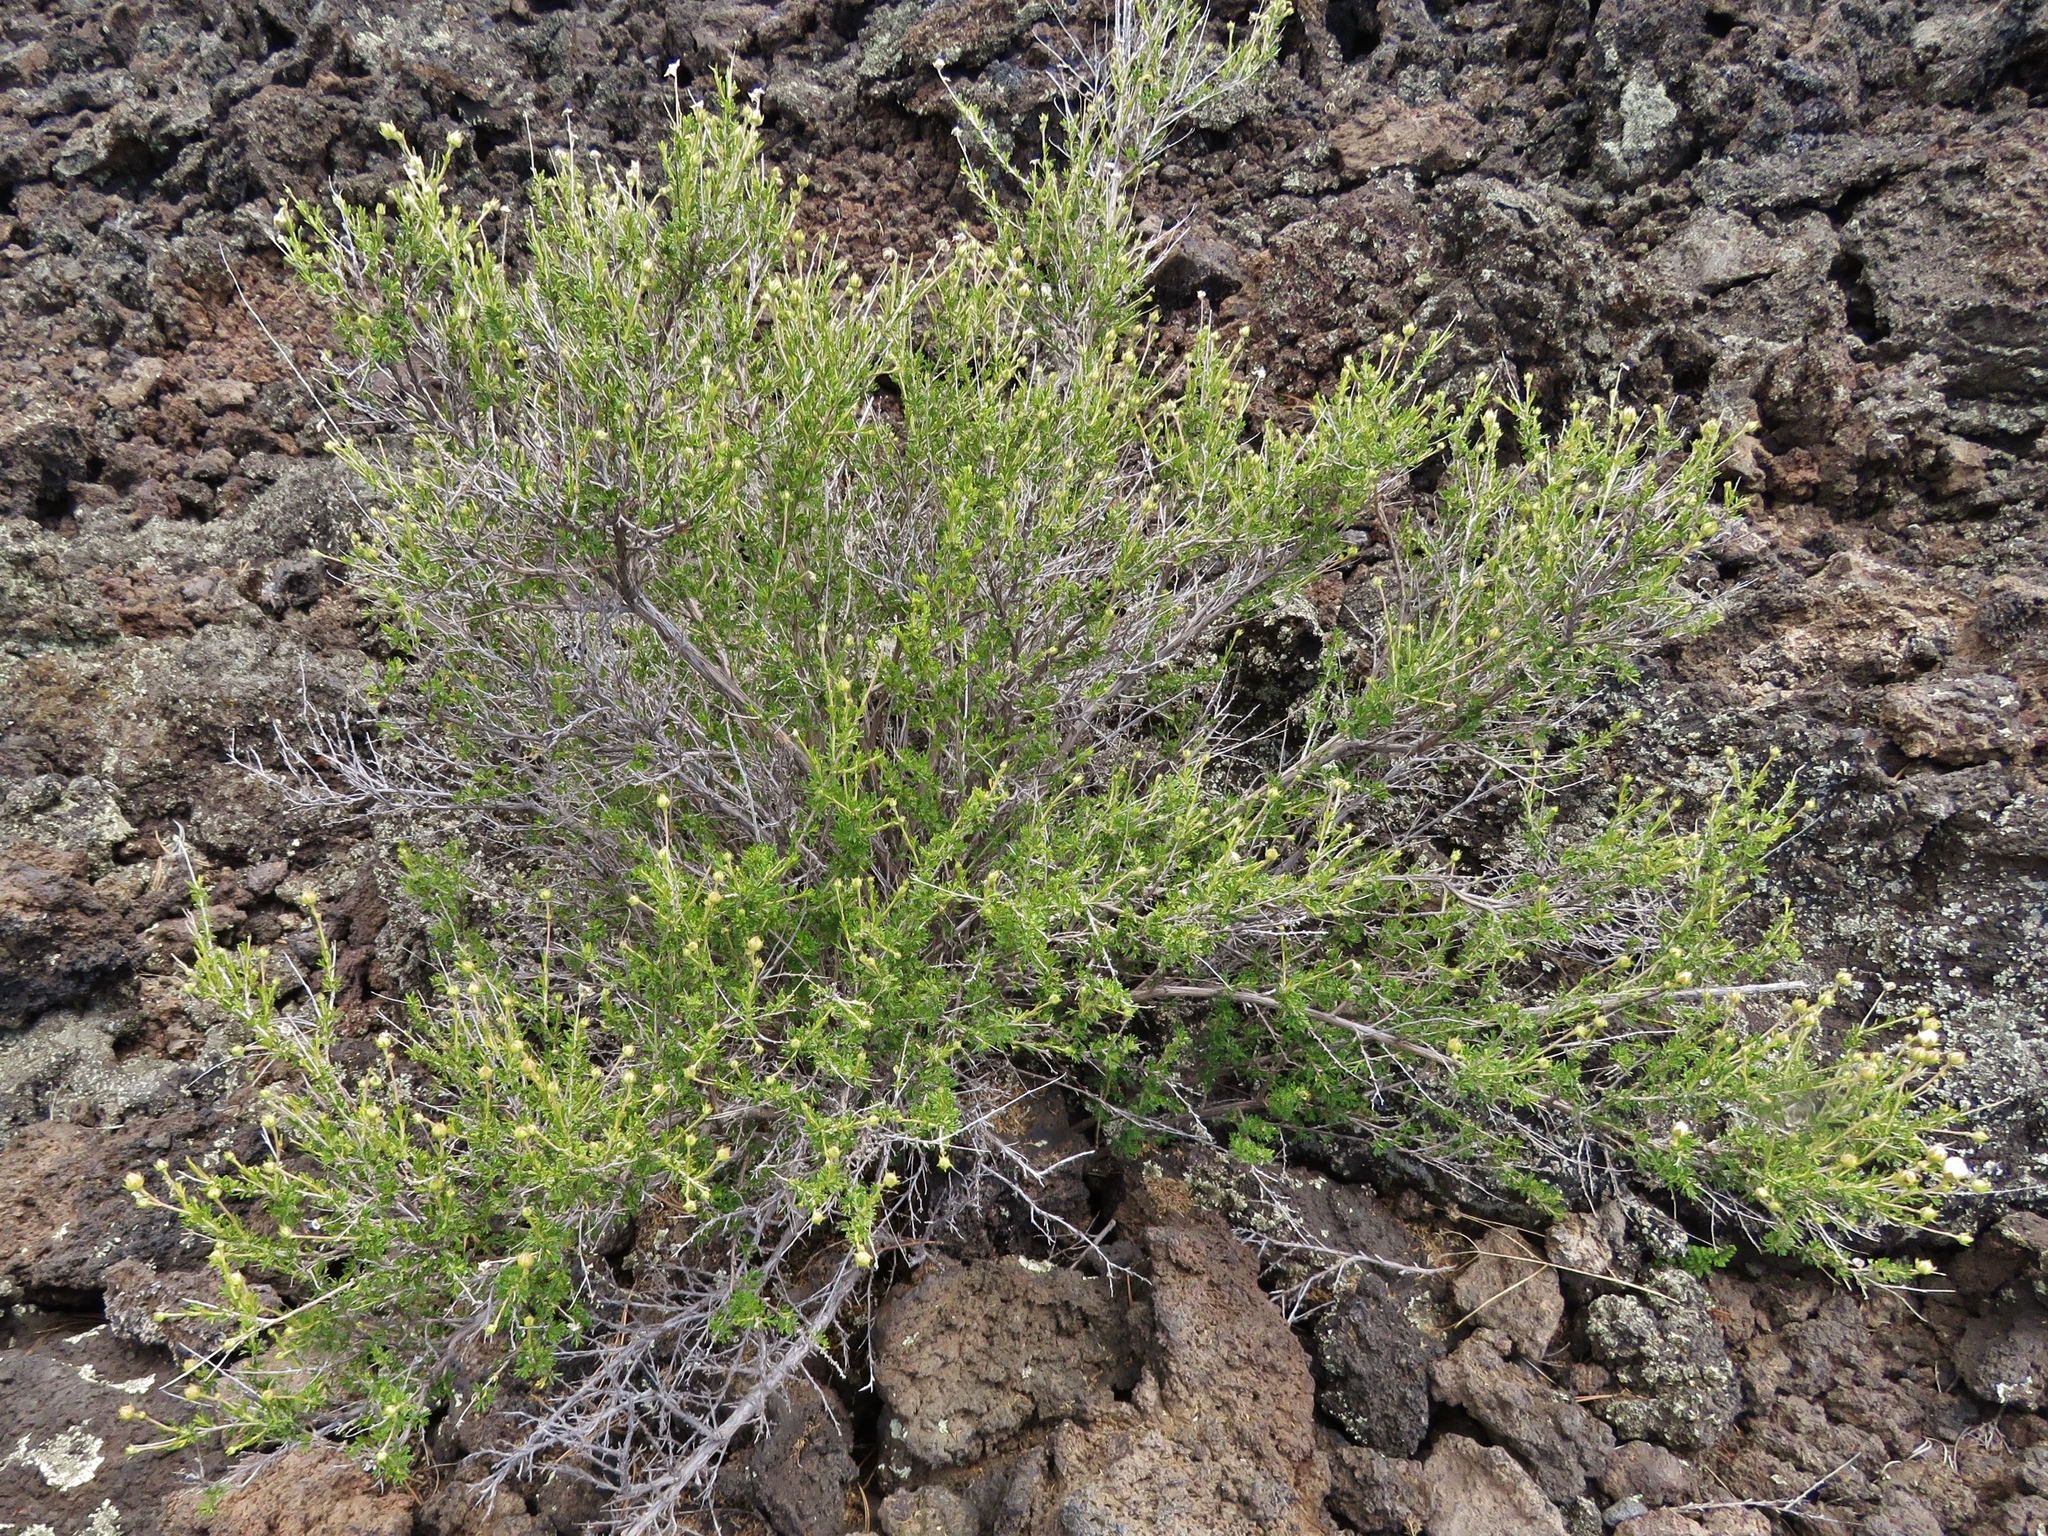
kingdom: Plantae
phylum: Tracheophyta
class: Magnoliopsida
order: Rosales
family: Rosaceae
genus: Fallugia
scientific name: Fallugia paradoxa
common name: Apache-plume
